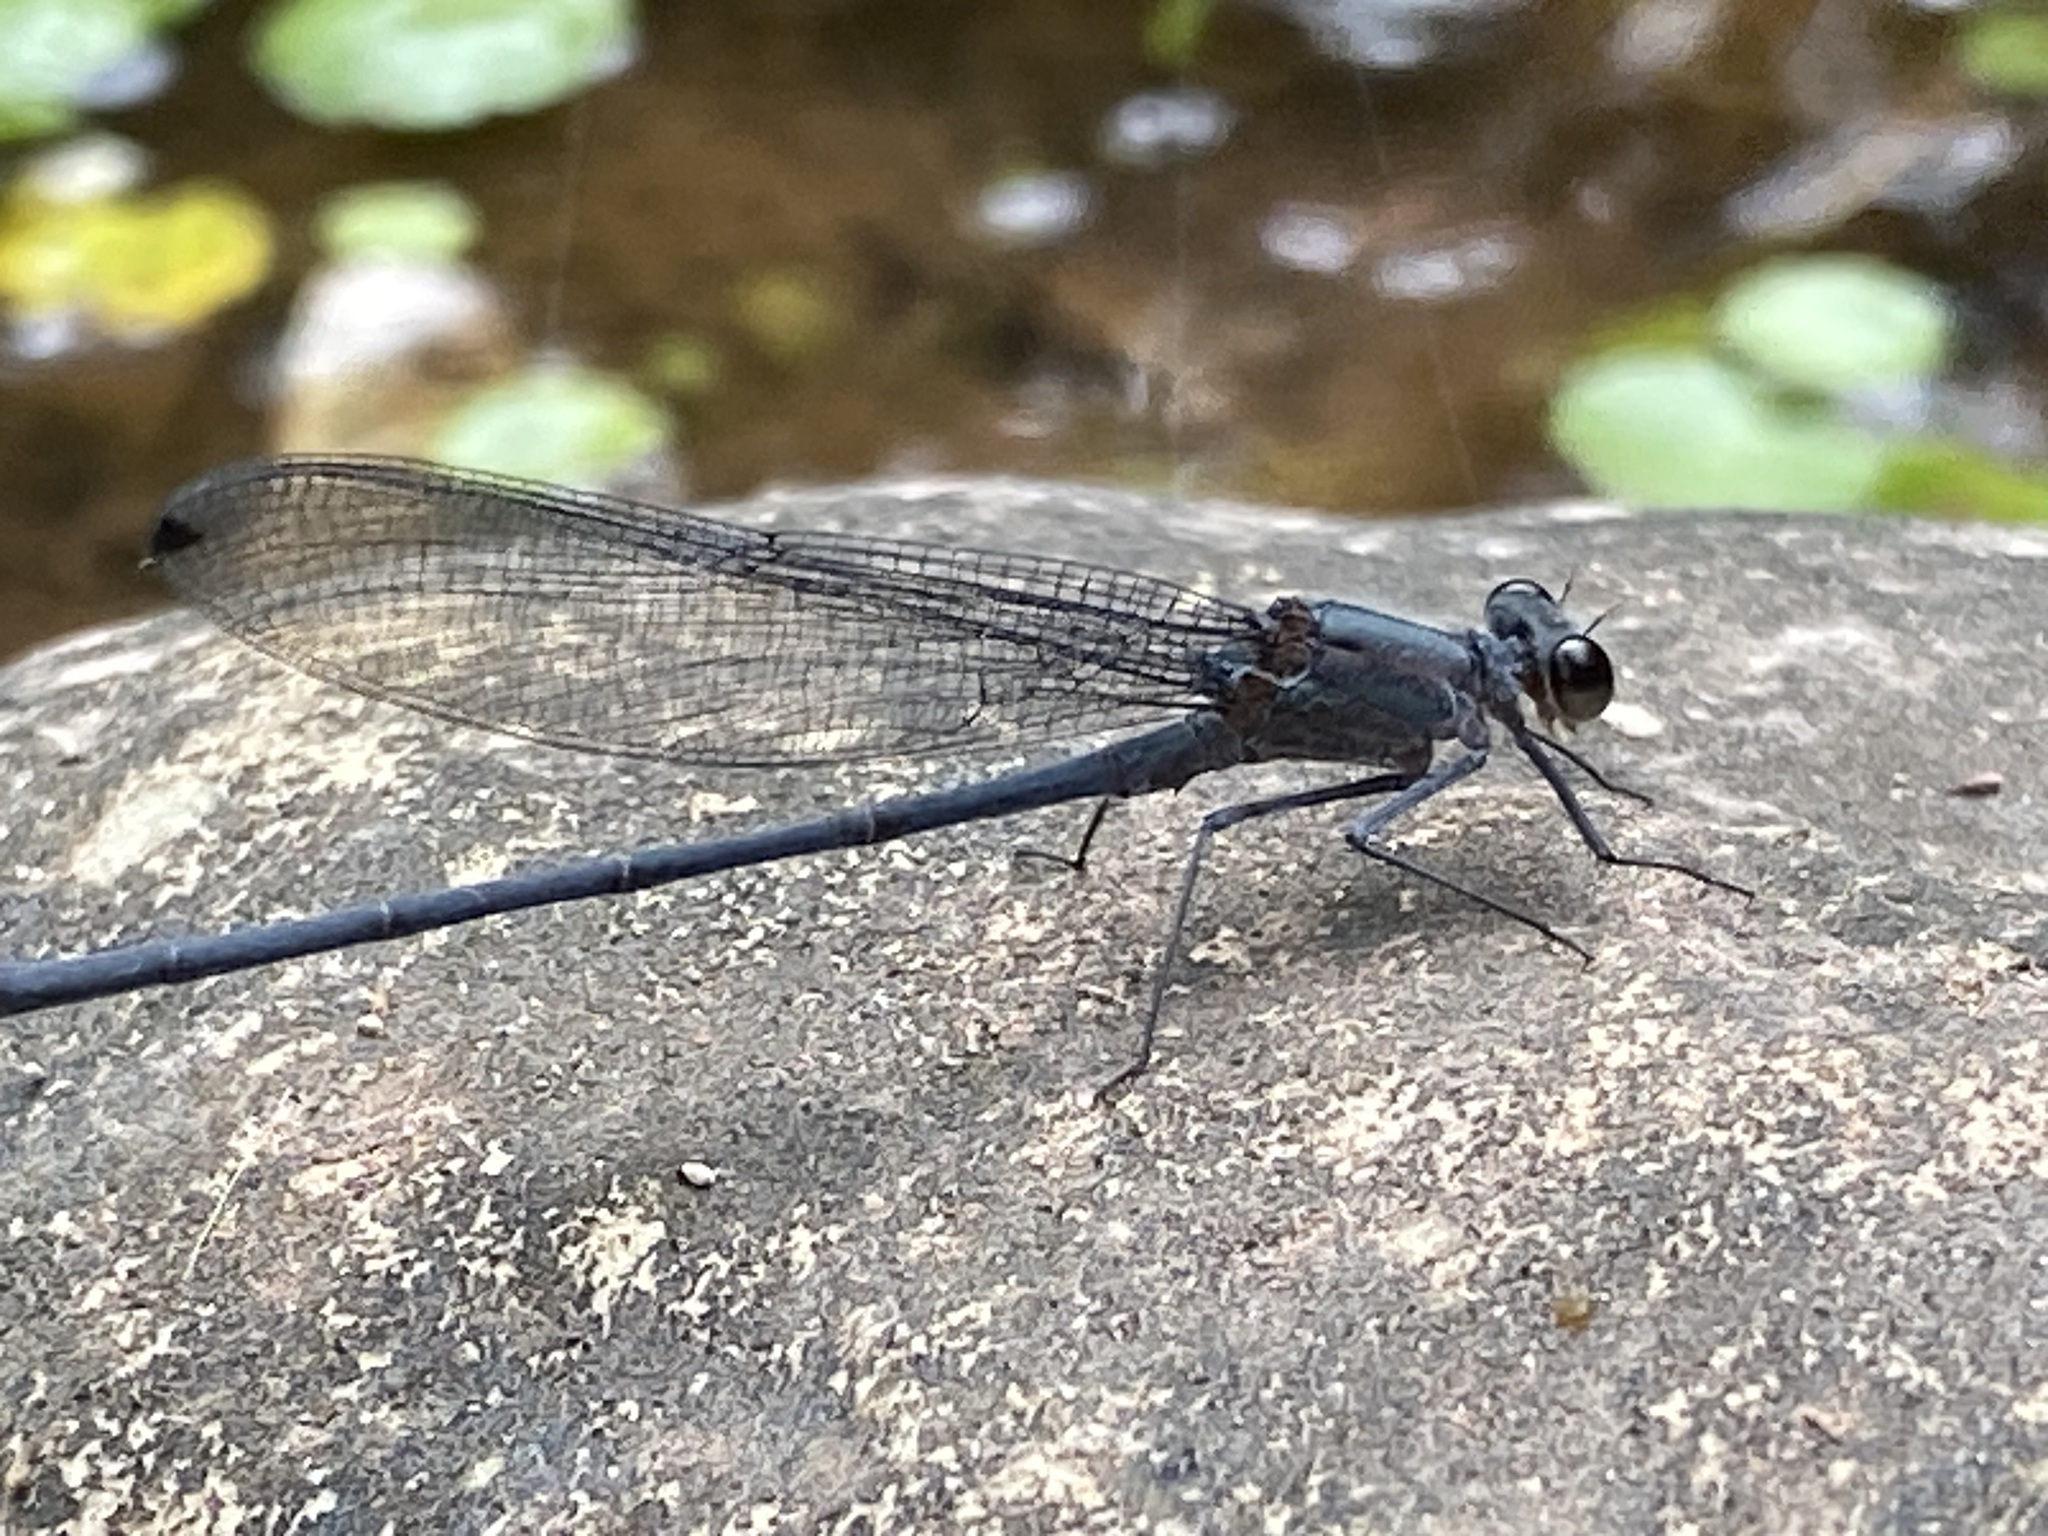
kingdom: Animalia
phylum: Arthropoda
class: Insecta
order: Odonata
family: Calopterygidae
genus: Mnesarete
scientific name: Mnesarete grisea
